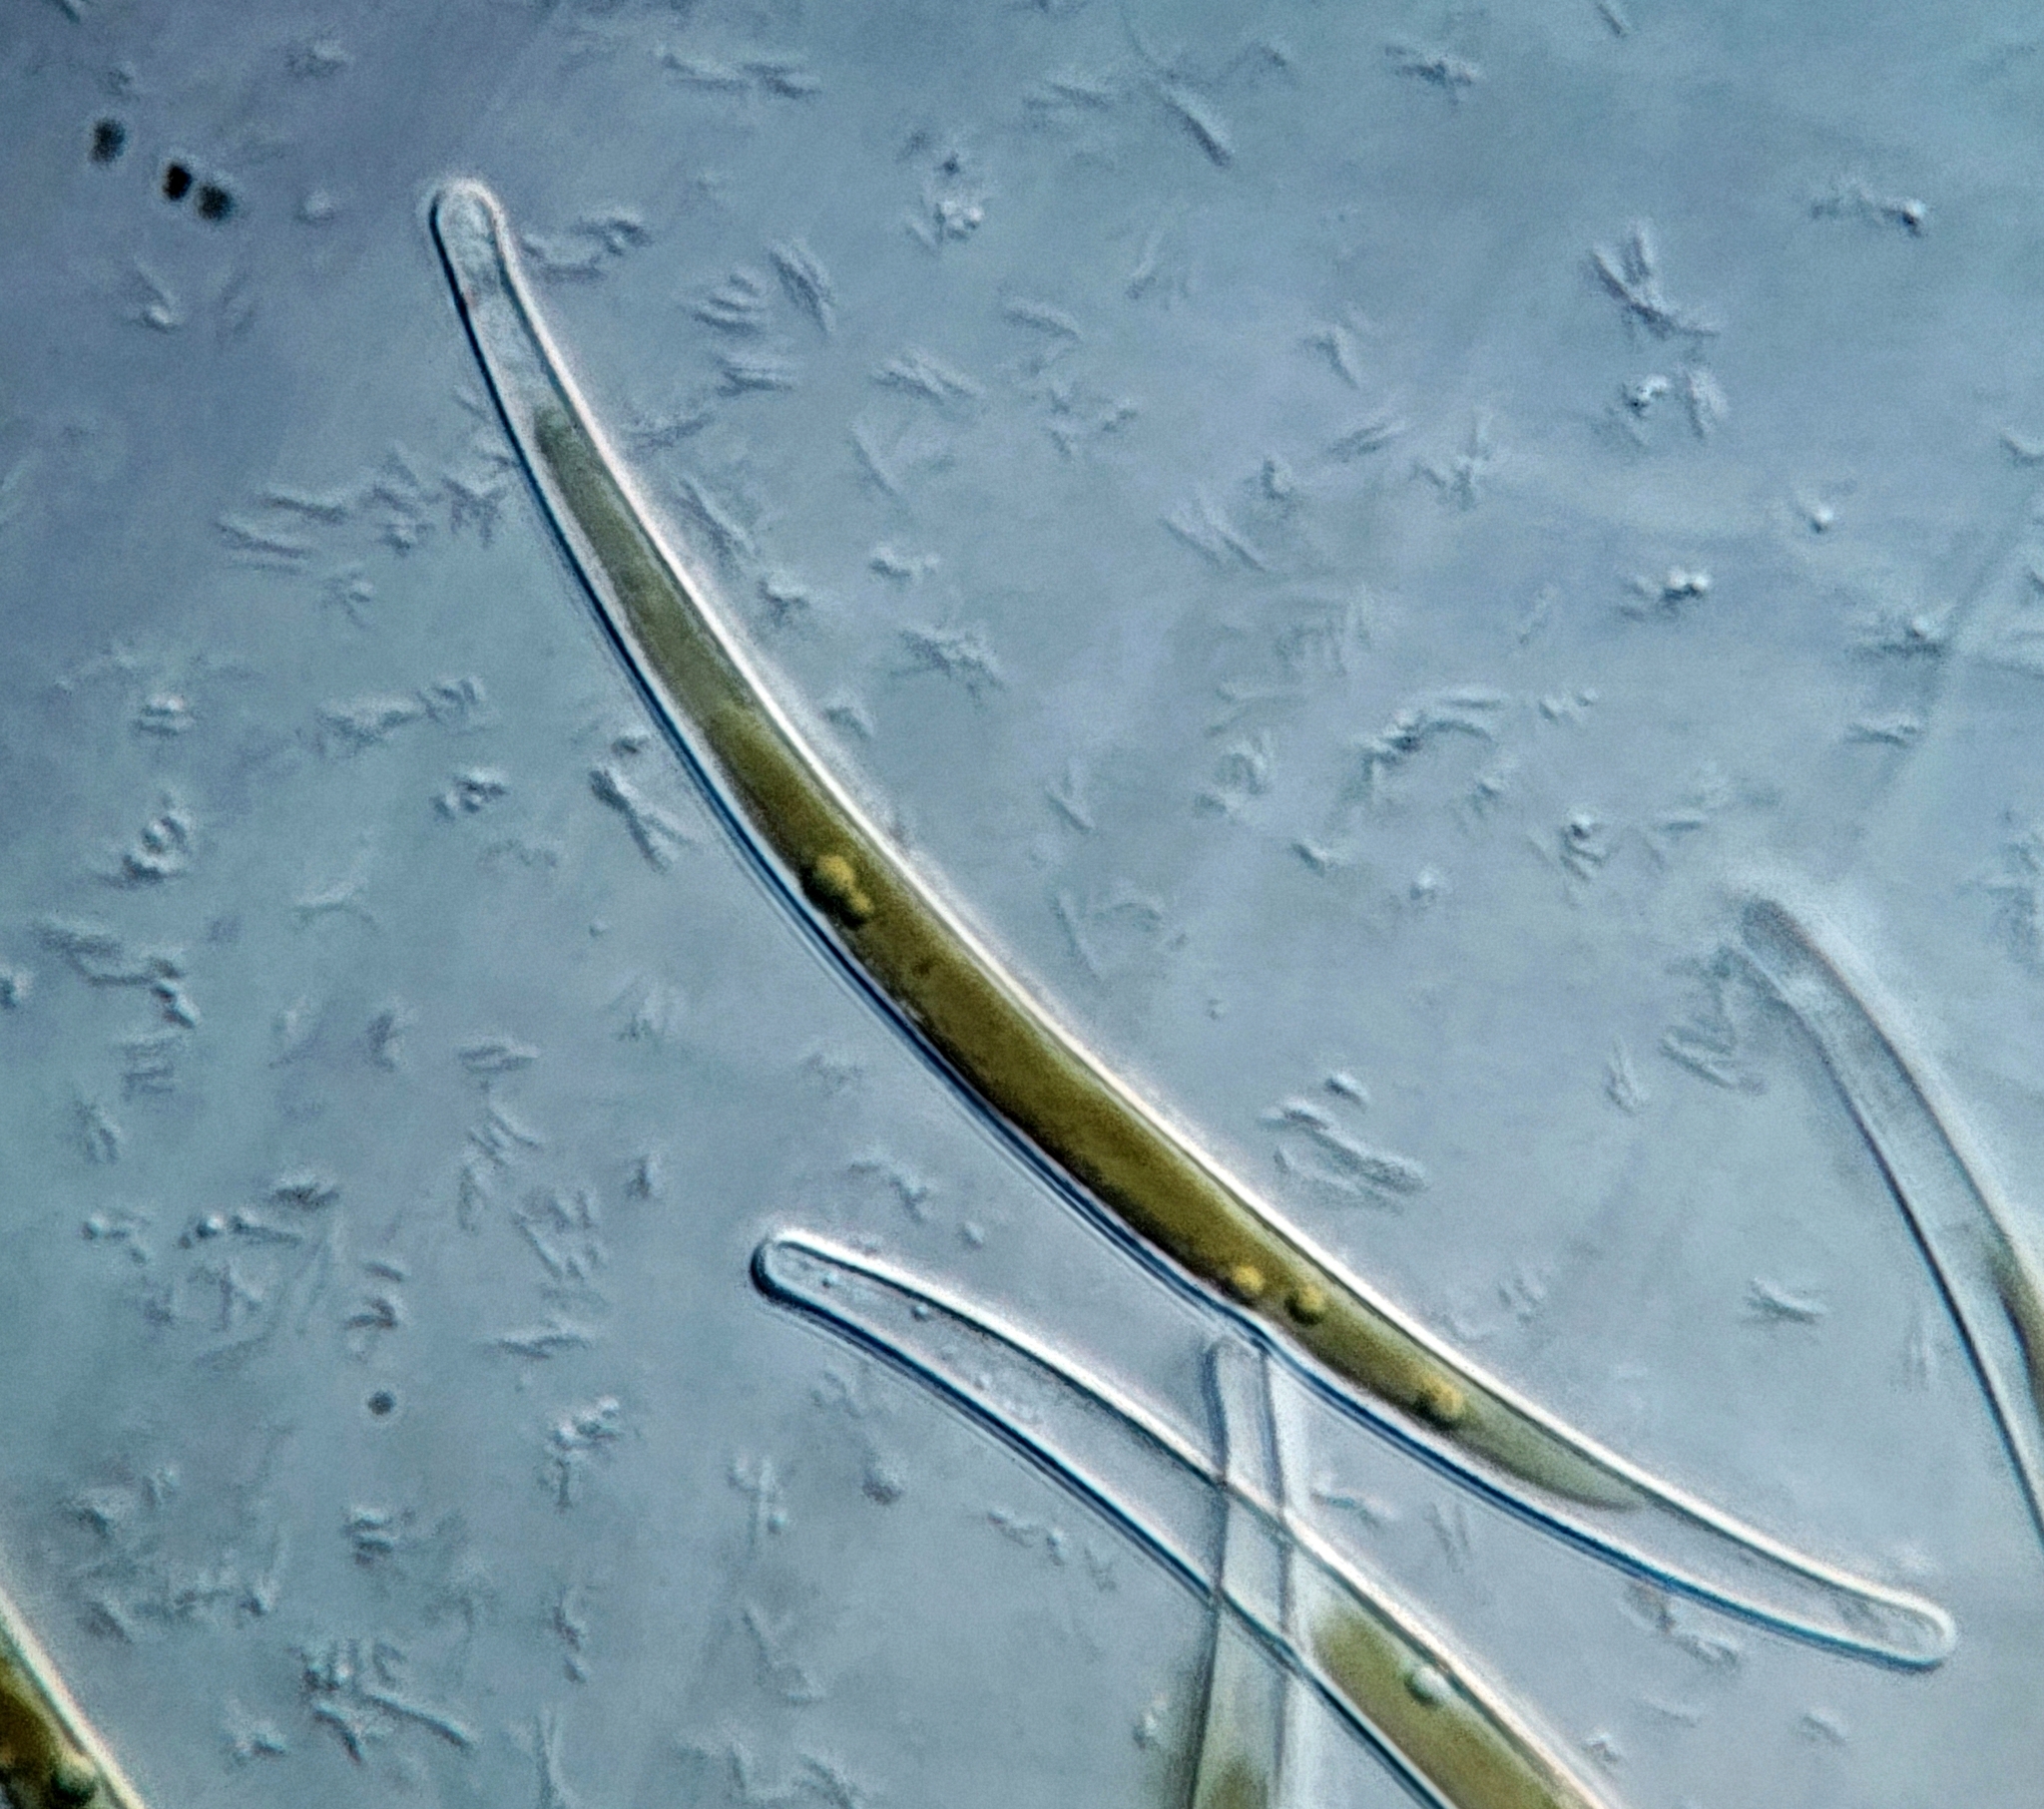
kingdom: Chromista
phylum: Ochrophyta
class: Bacillariophyceae
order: Fragilariales
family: Fragilariaceae
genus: Synedra
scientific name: Synedra cyclopum
